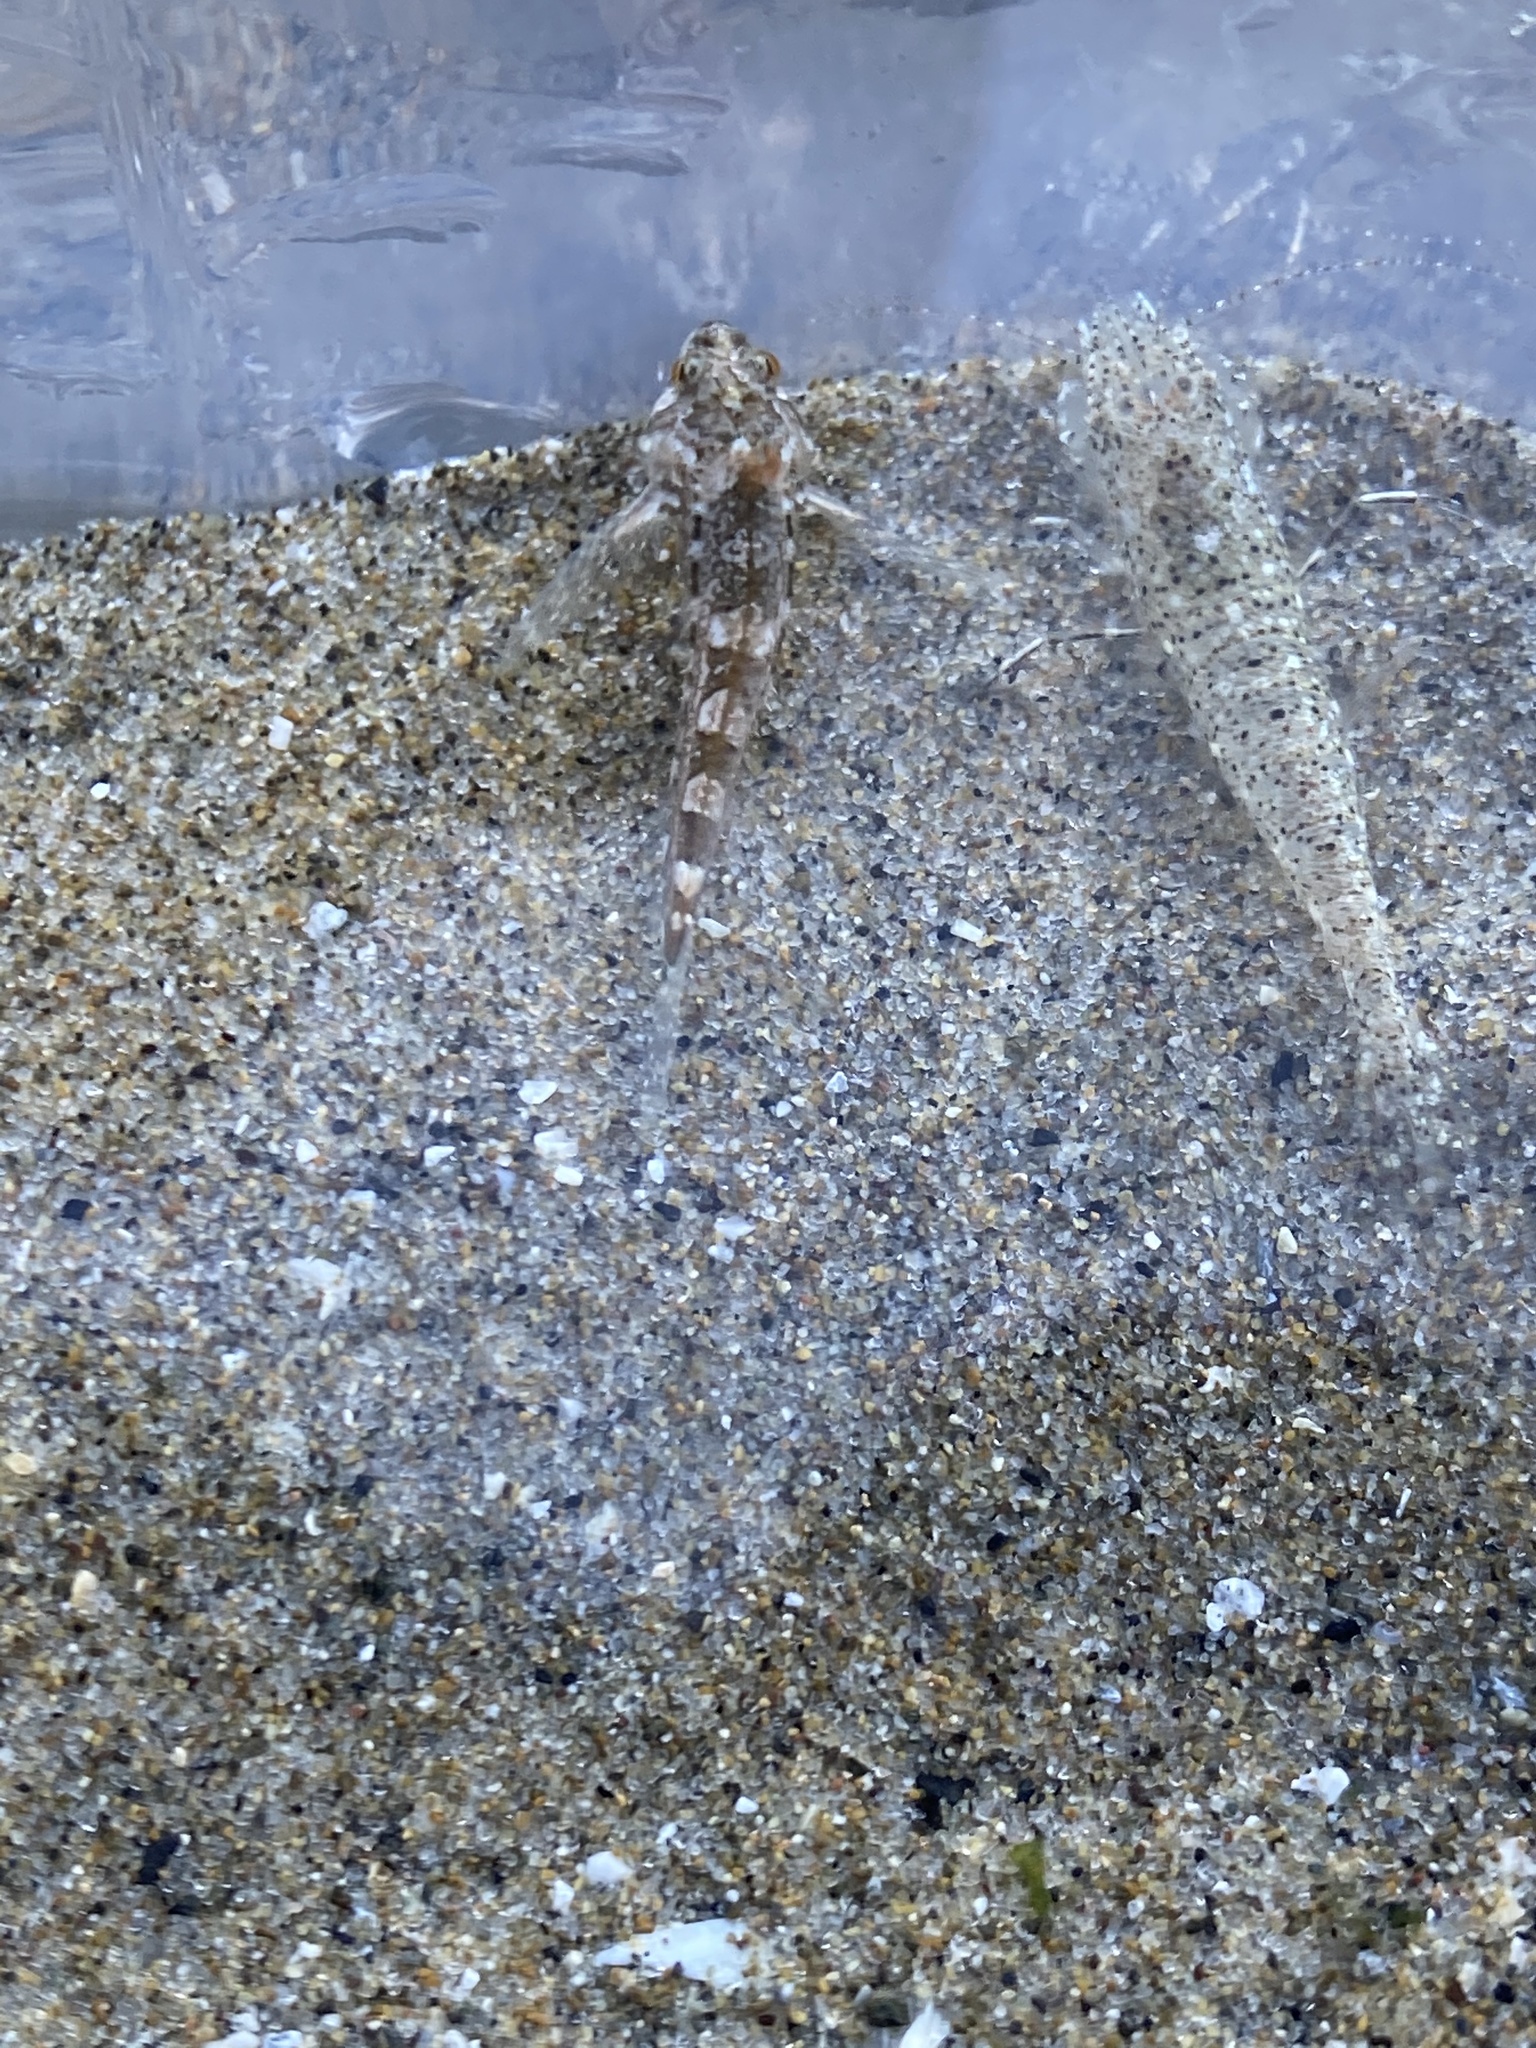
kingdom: Animalia
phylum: Arthropoda
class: Malacostraca
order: Decapoda
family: Crangonidae
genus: Lissocrangon
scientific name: Lissocrangon stylirostris
